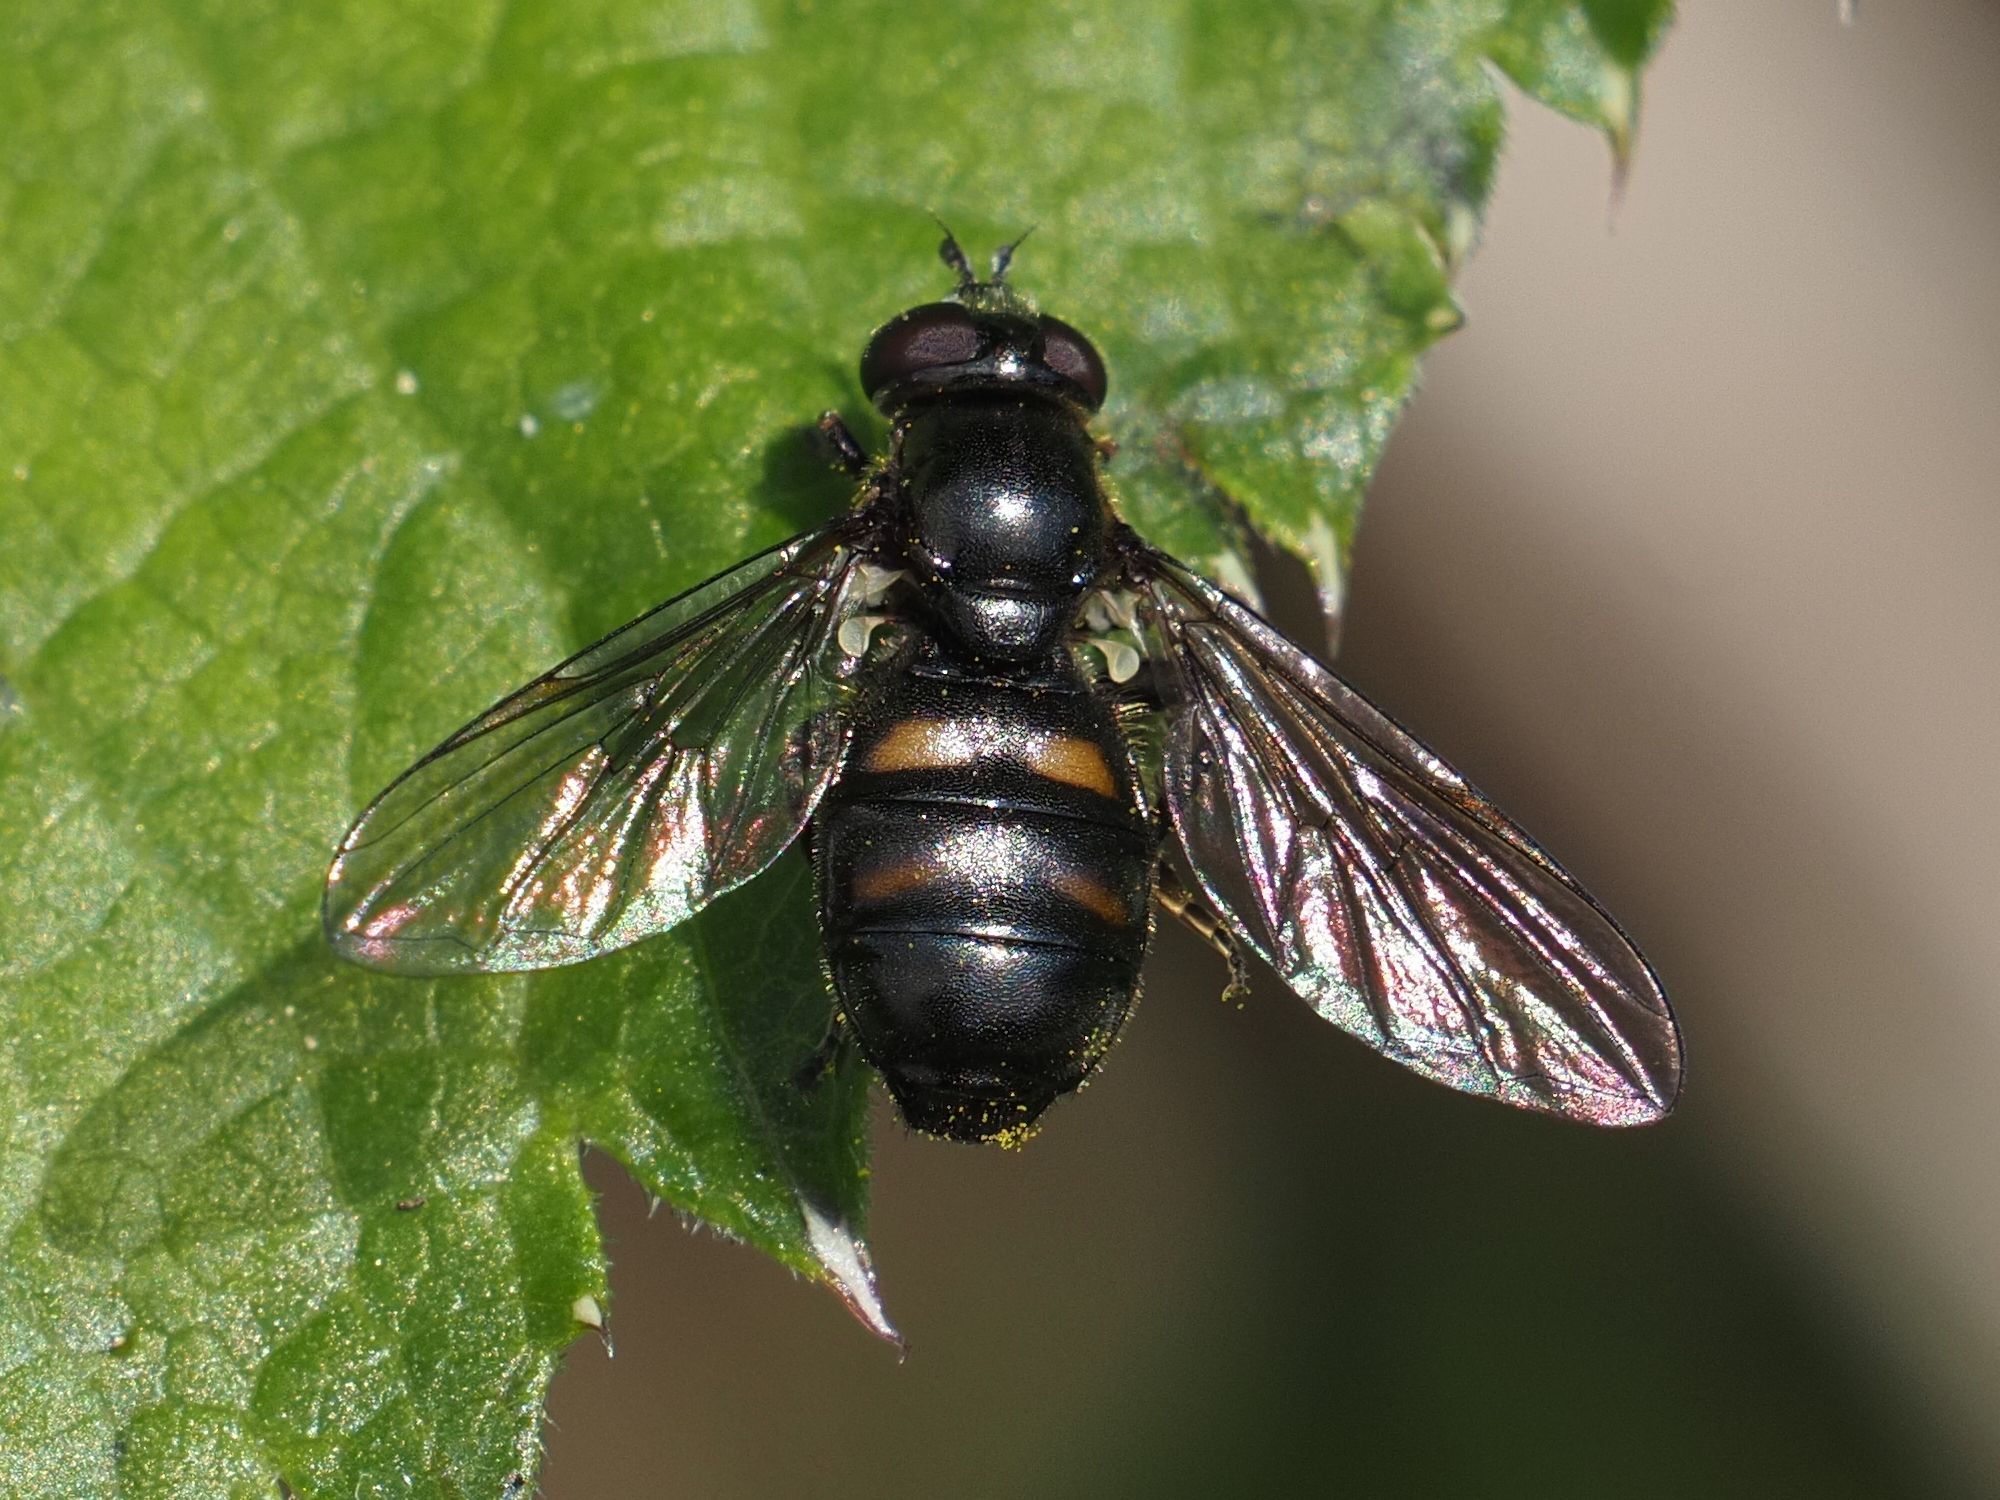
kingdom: Animalia
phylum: Arthropoda
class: Insecta
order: Diptera
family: Syrphidae
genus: Pipiza
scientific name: Pipiza quadrimaculata
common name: Four-spotted pipiza
